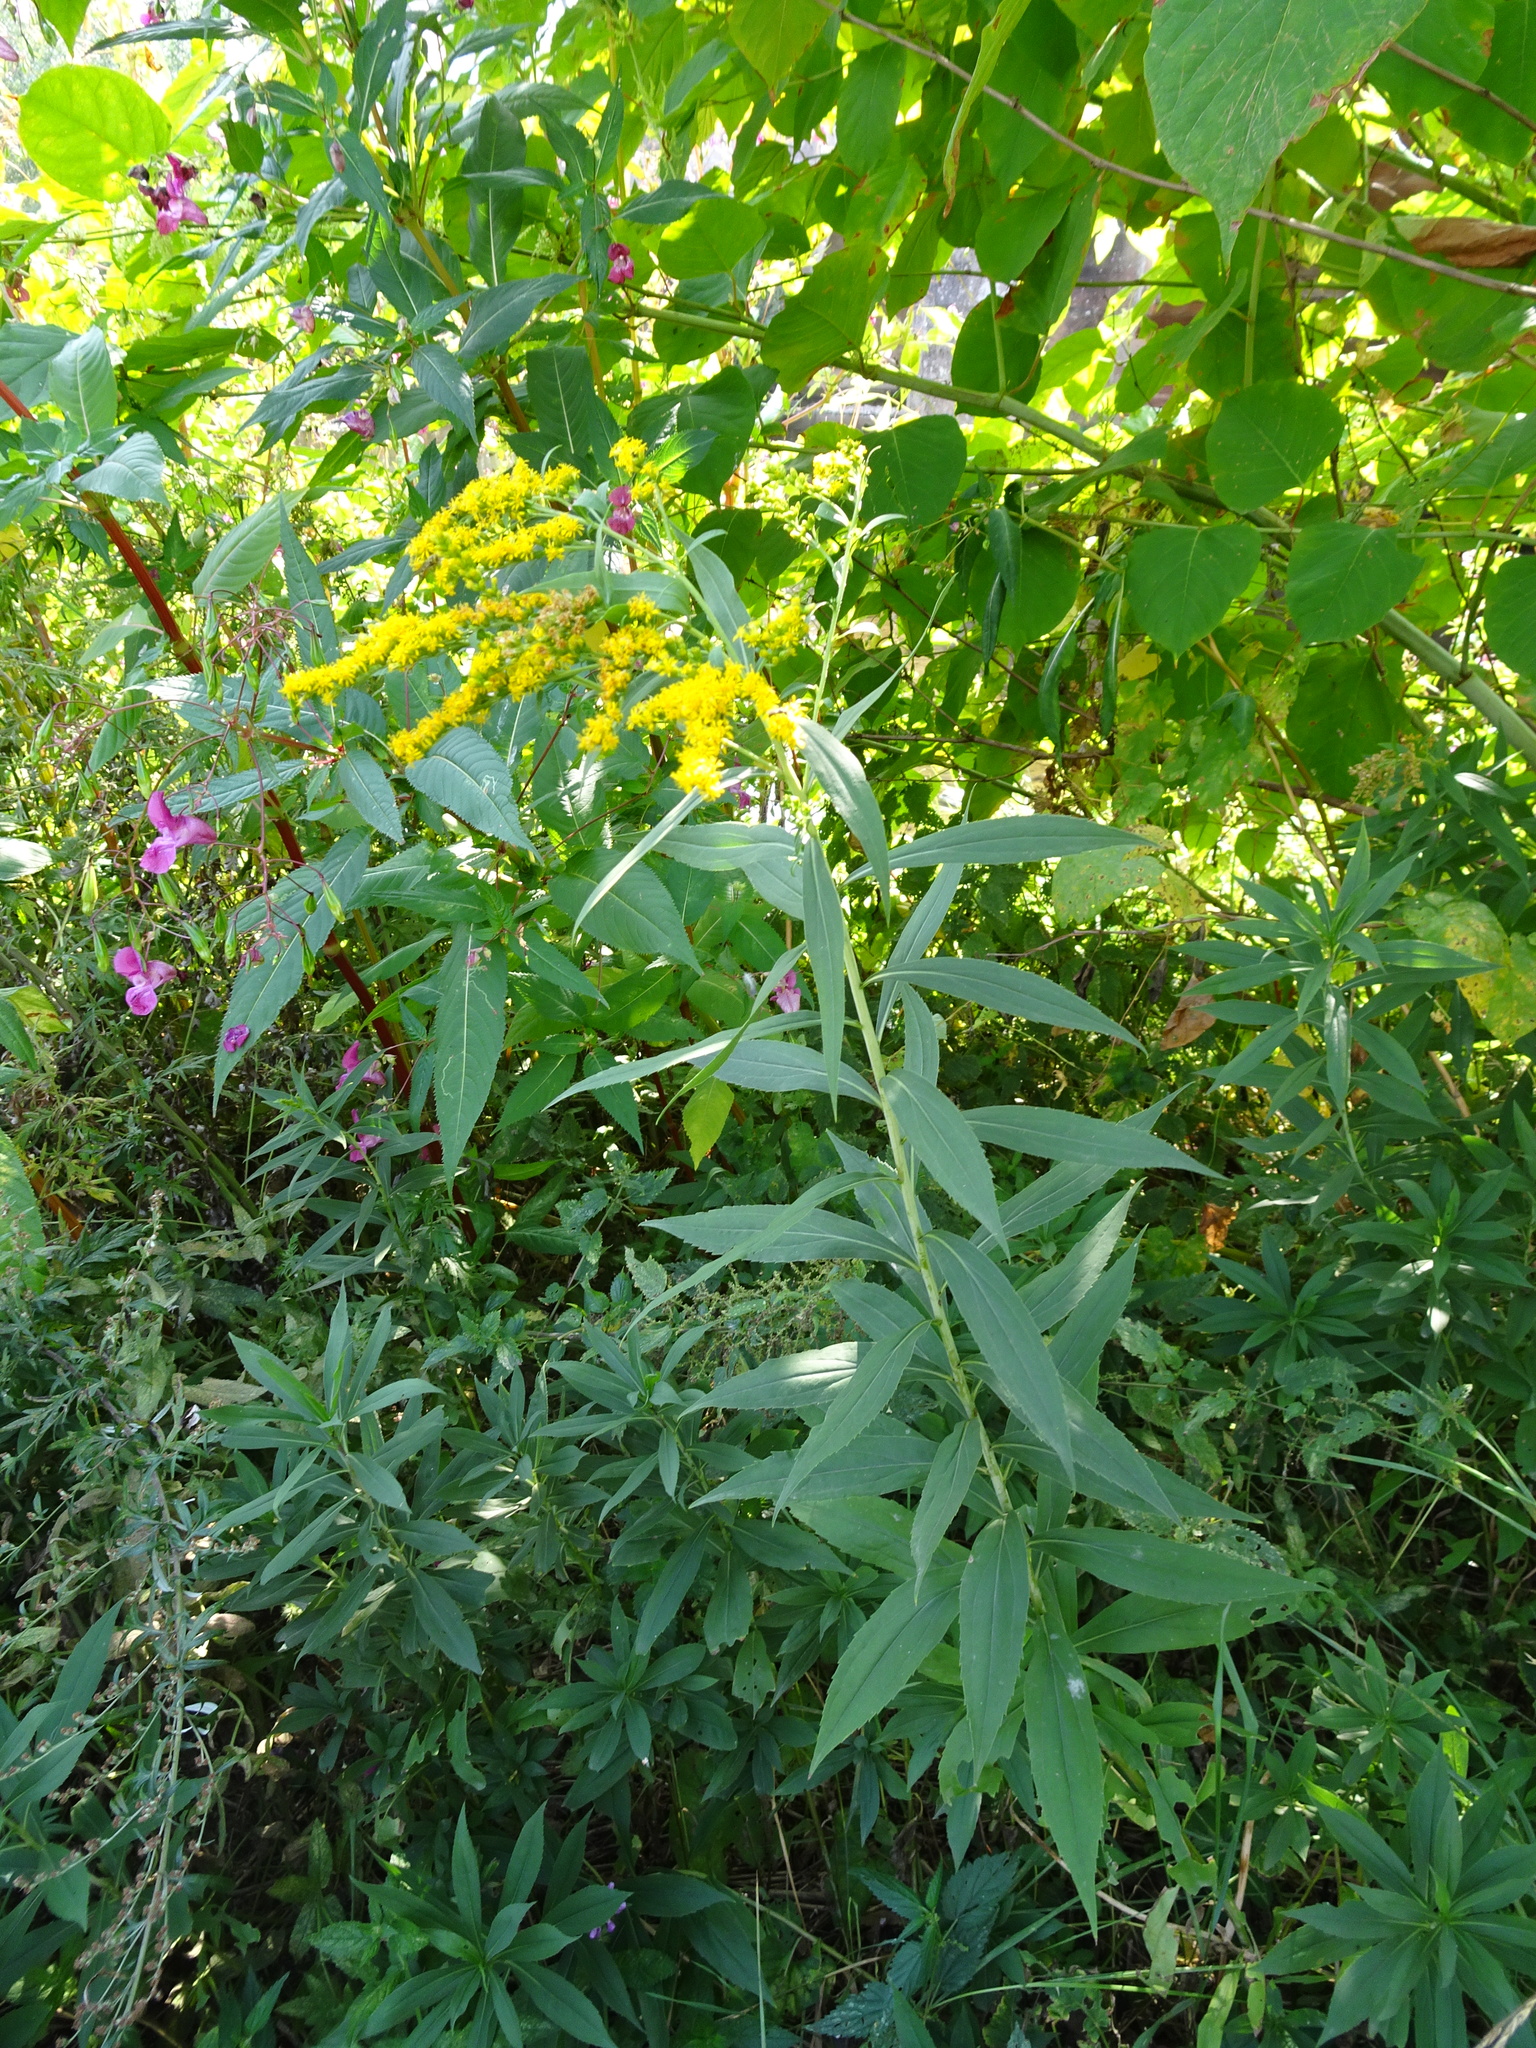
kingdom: Plantae
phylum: Tracheophyta
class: Magnoliopsida
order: Asterales
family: Asteraceae
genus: Solidago
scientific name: Solidago gigantea
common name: Giant goldenrod
